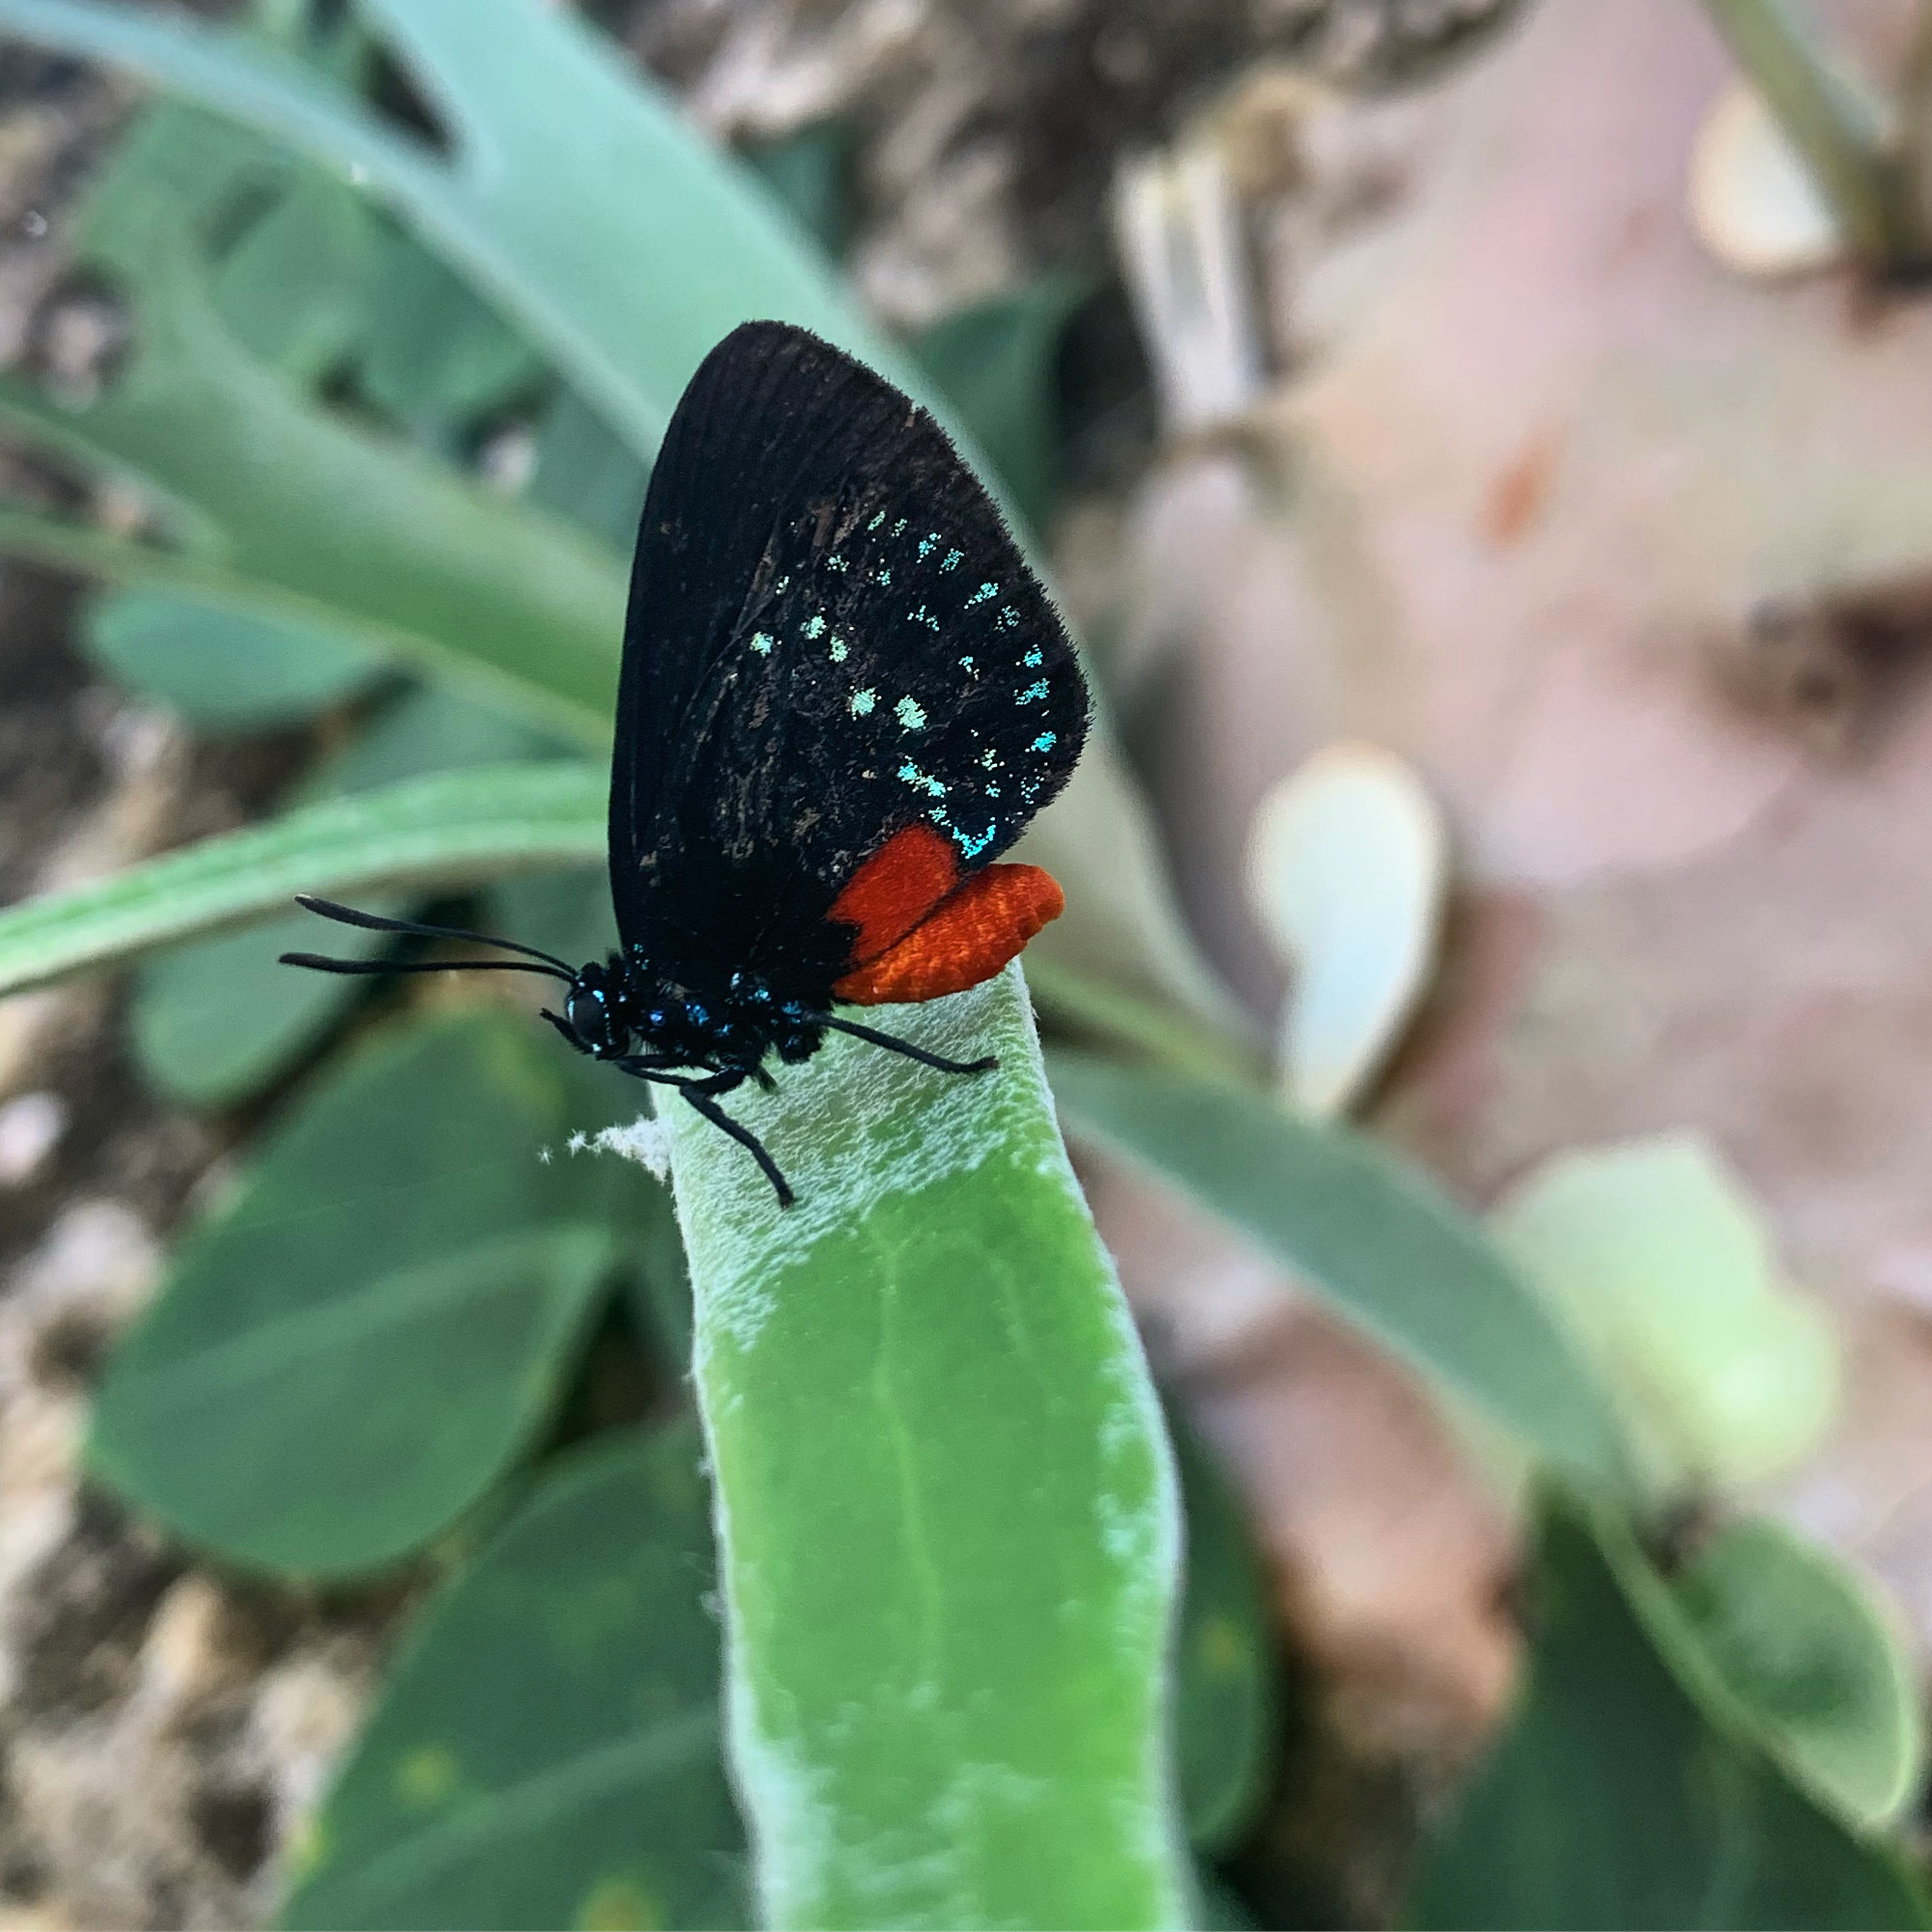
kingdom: Animalia
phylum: Arthropoda
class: Insecta
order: Lepidoptera
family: Lycaenidae
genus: Eumaeus
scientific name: Eumaeus atala
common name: Atala
